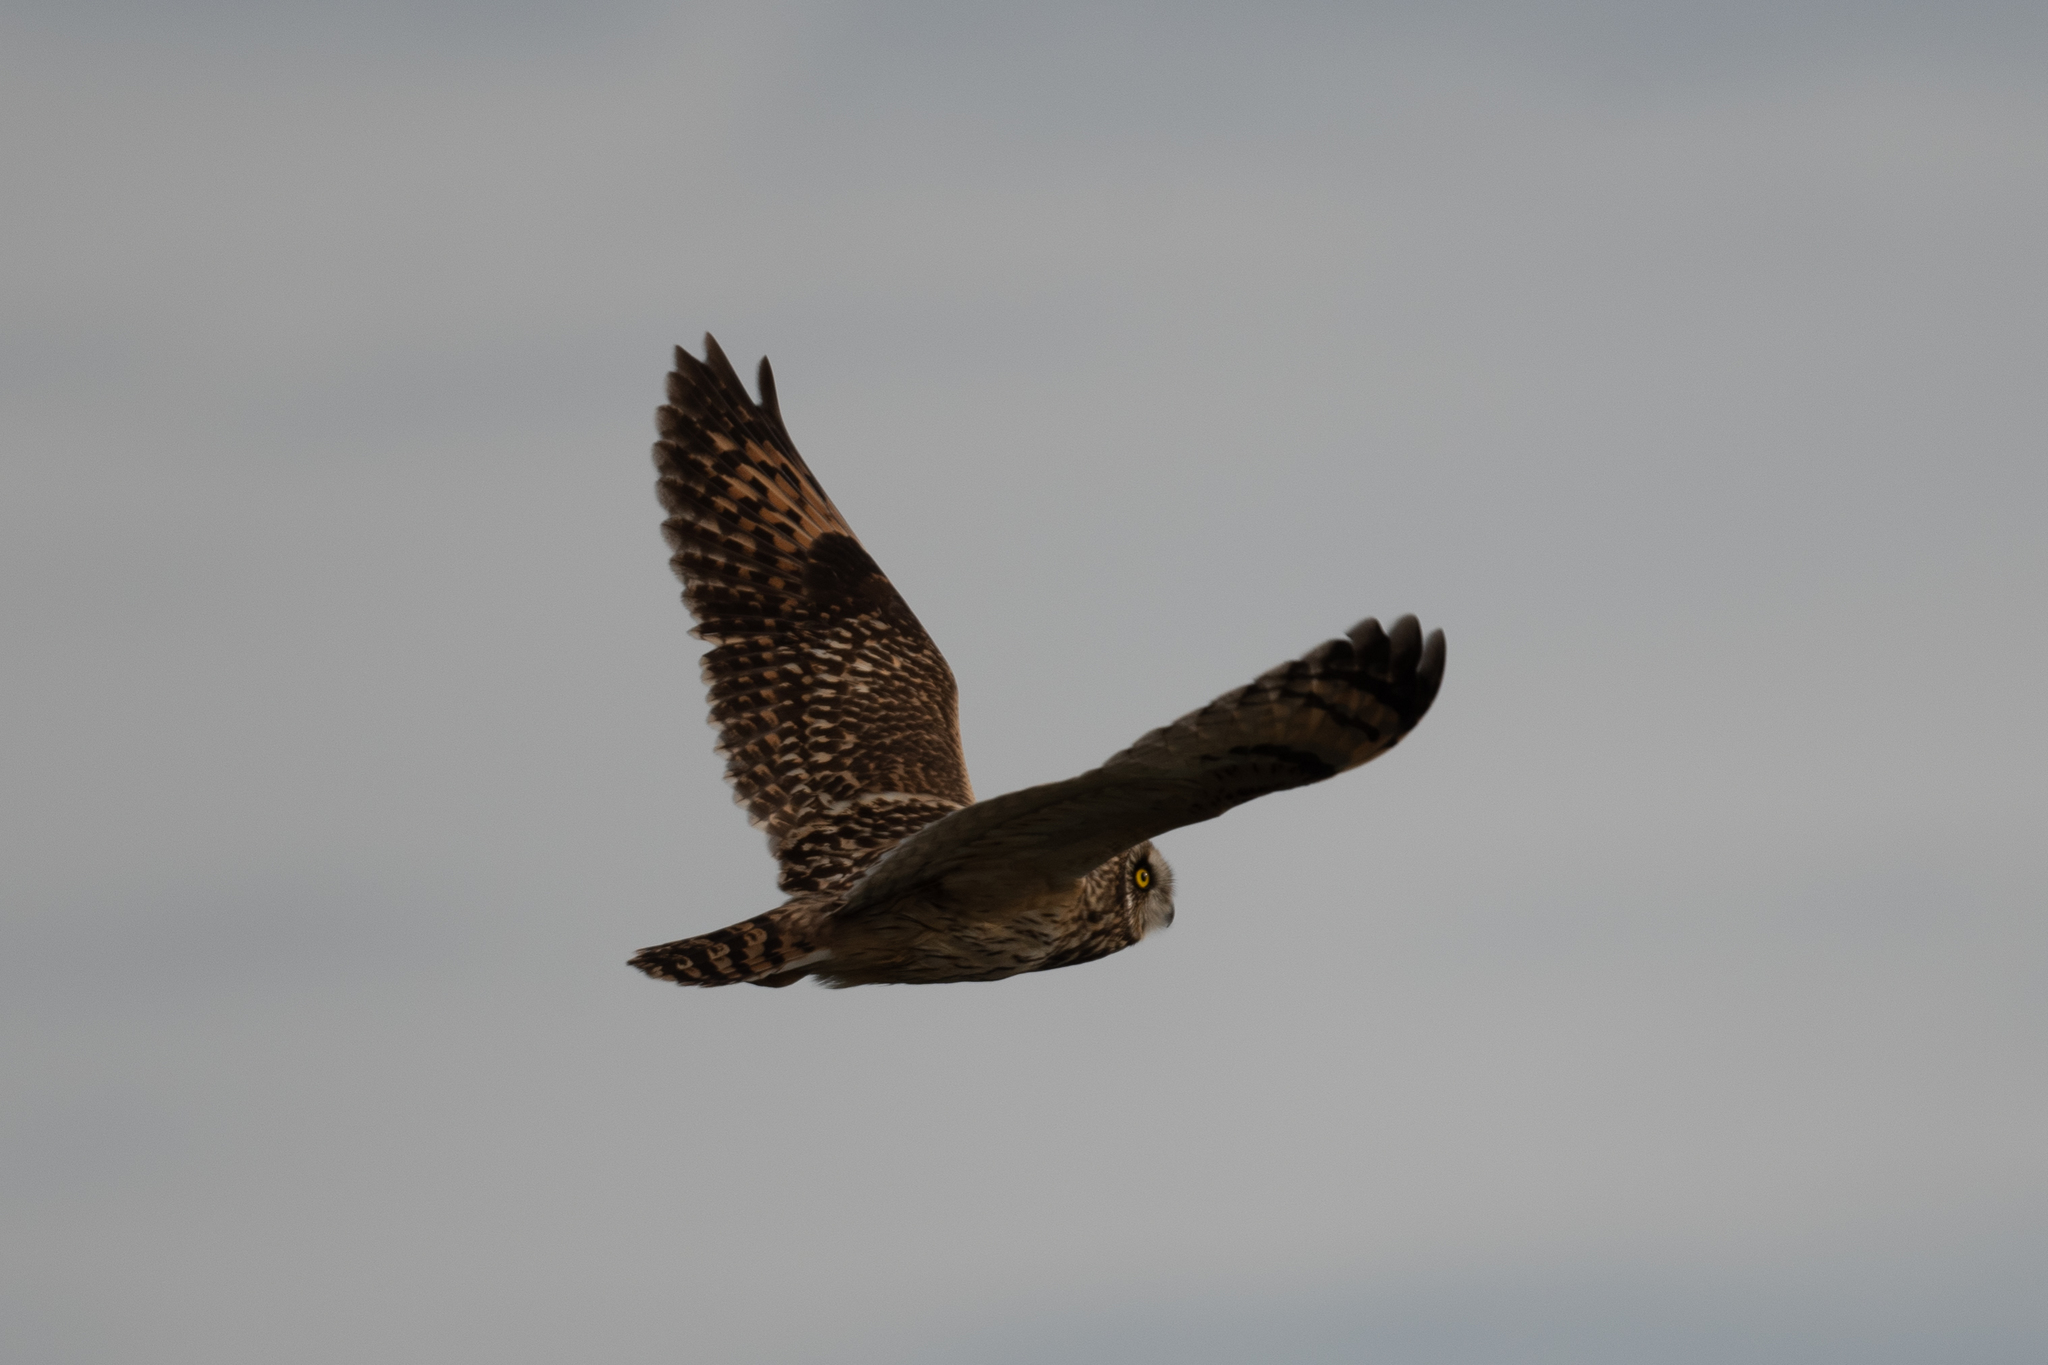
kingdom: Animalia
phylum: Chordata
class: Aves
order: Strigiformes
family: Strigidae
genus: Asio
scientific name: Asio flammeus
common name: Short-eared owl
